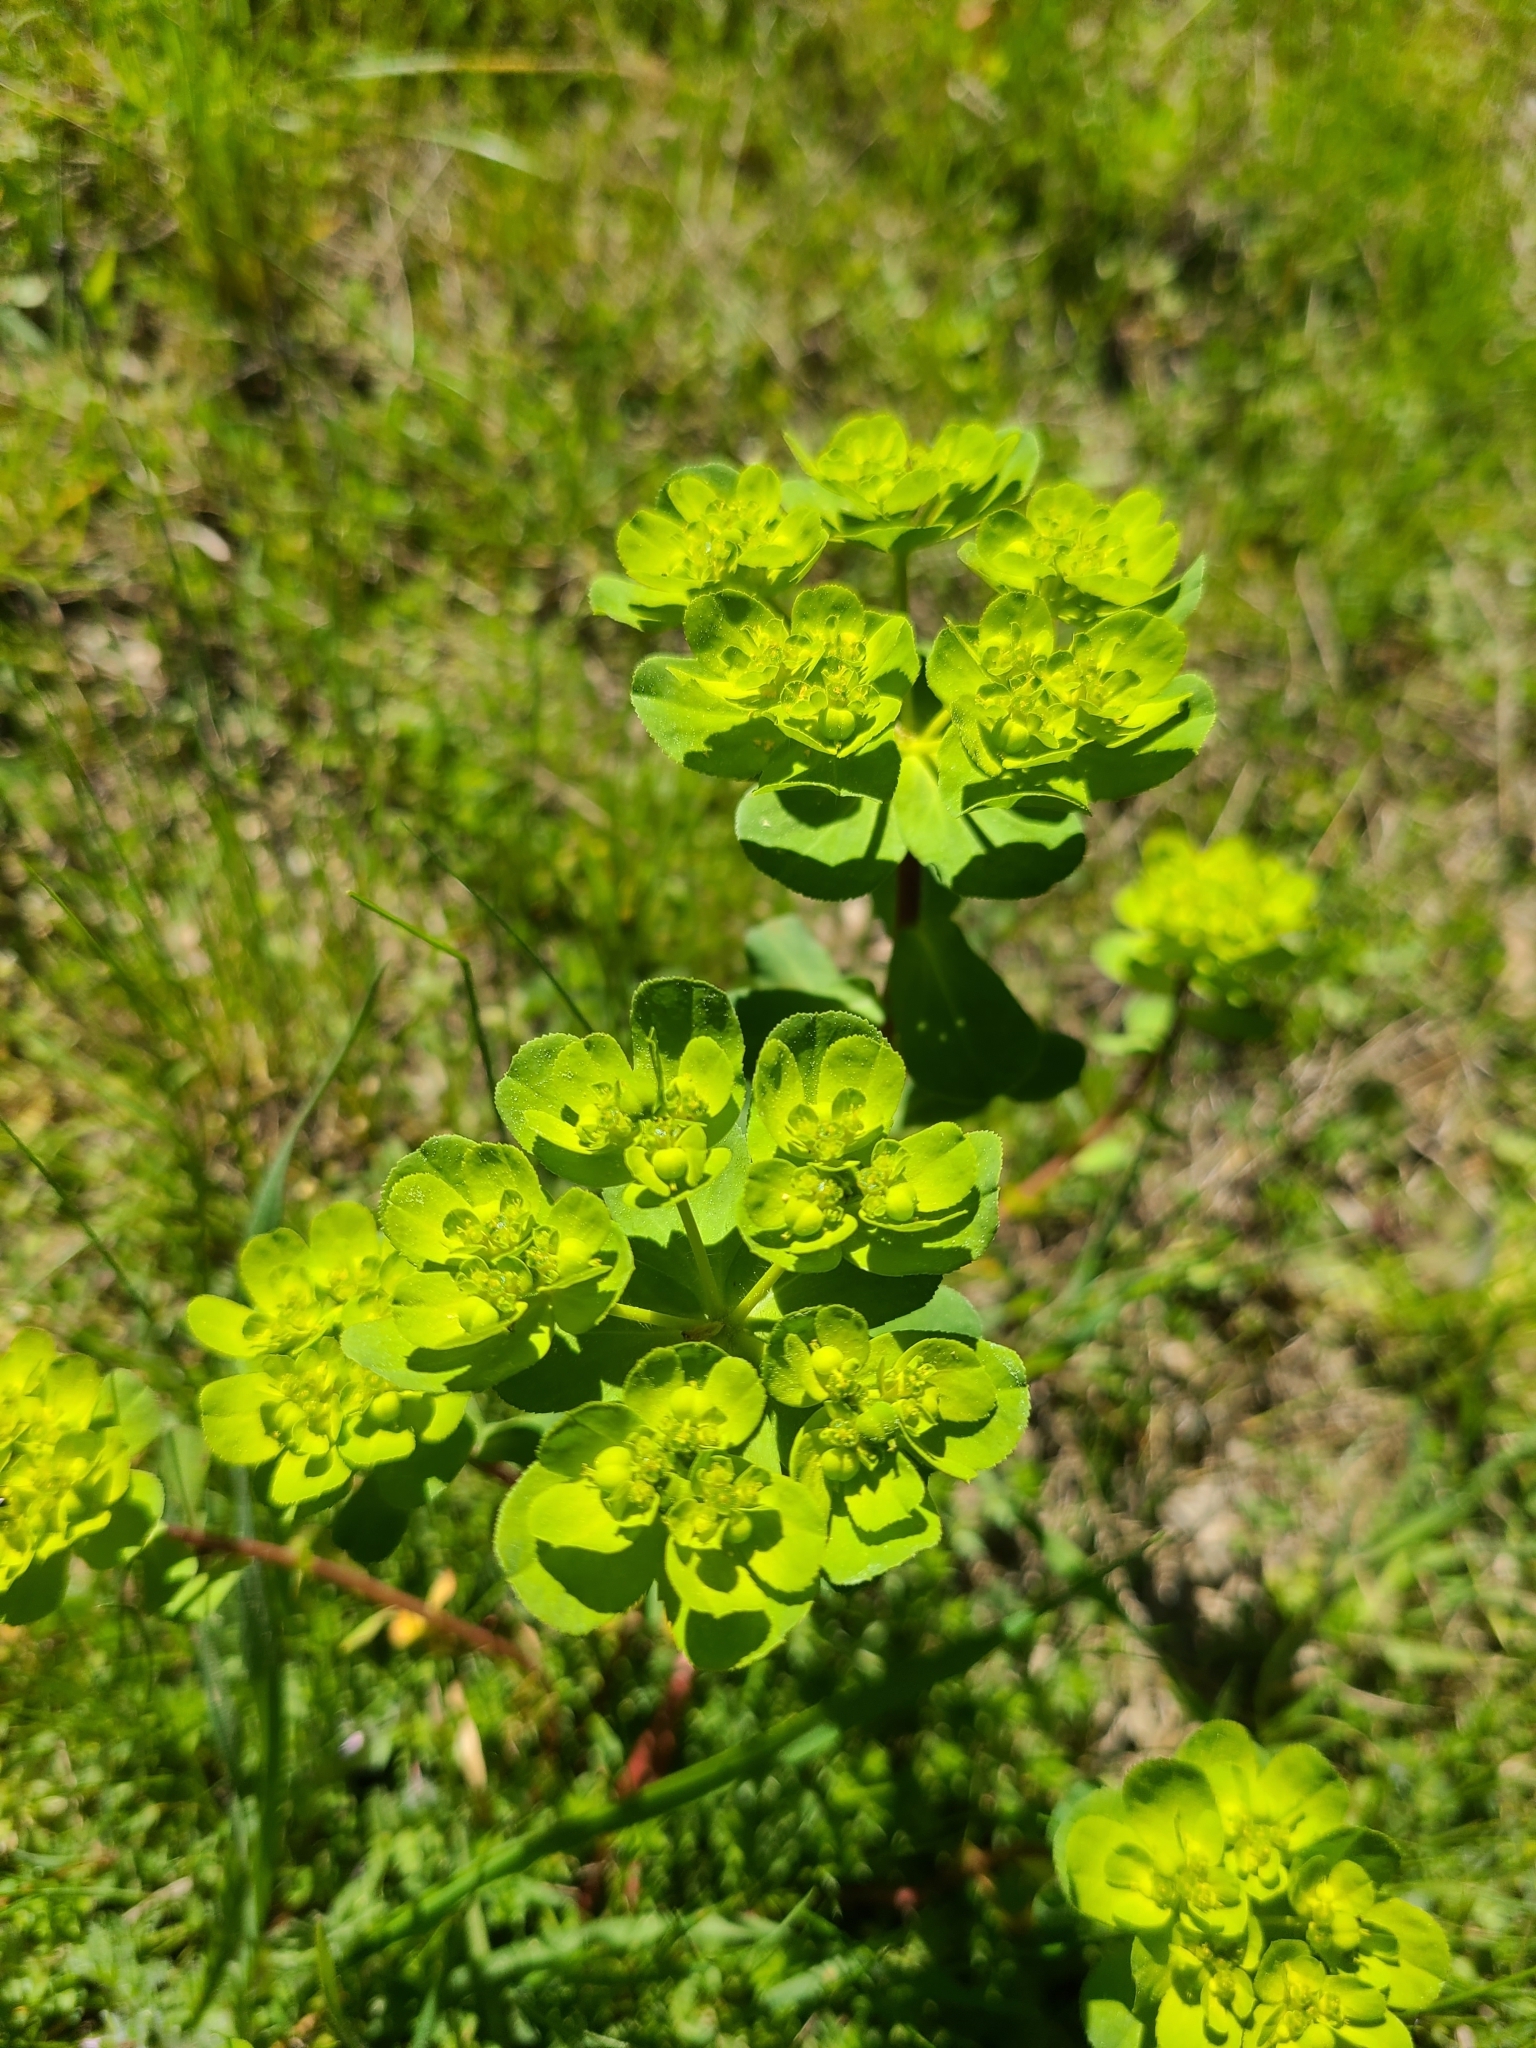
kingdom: Plantae
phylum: Tracheophyta
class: Magnoliopsida
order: Malpighiales
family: Euphorbiaceae
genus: Euphorbia
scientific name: Euphorbia helioscopia
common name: Sun spurge
